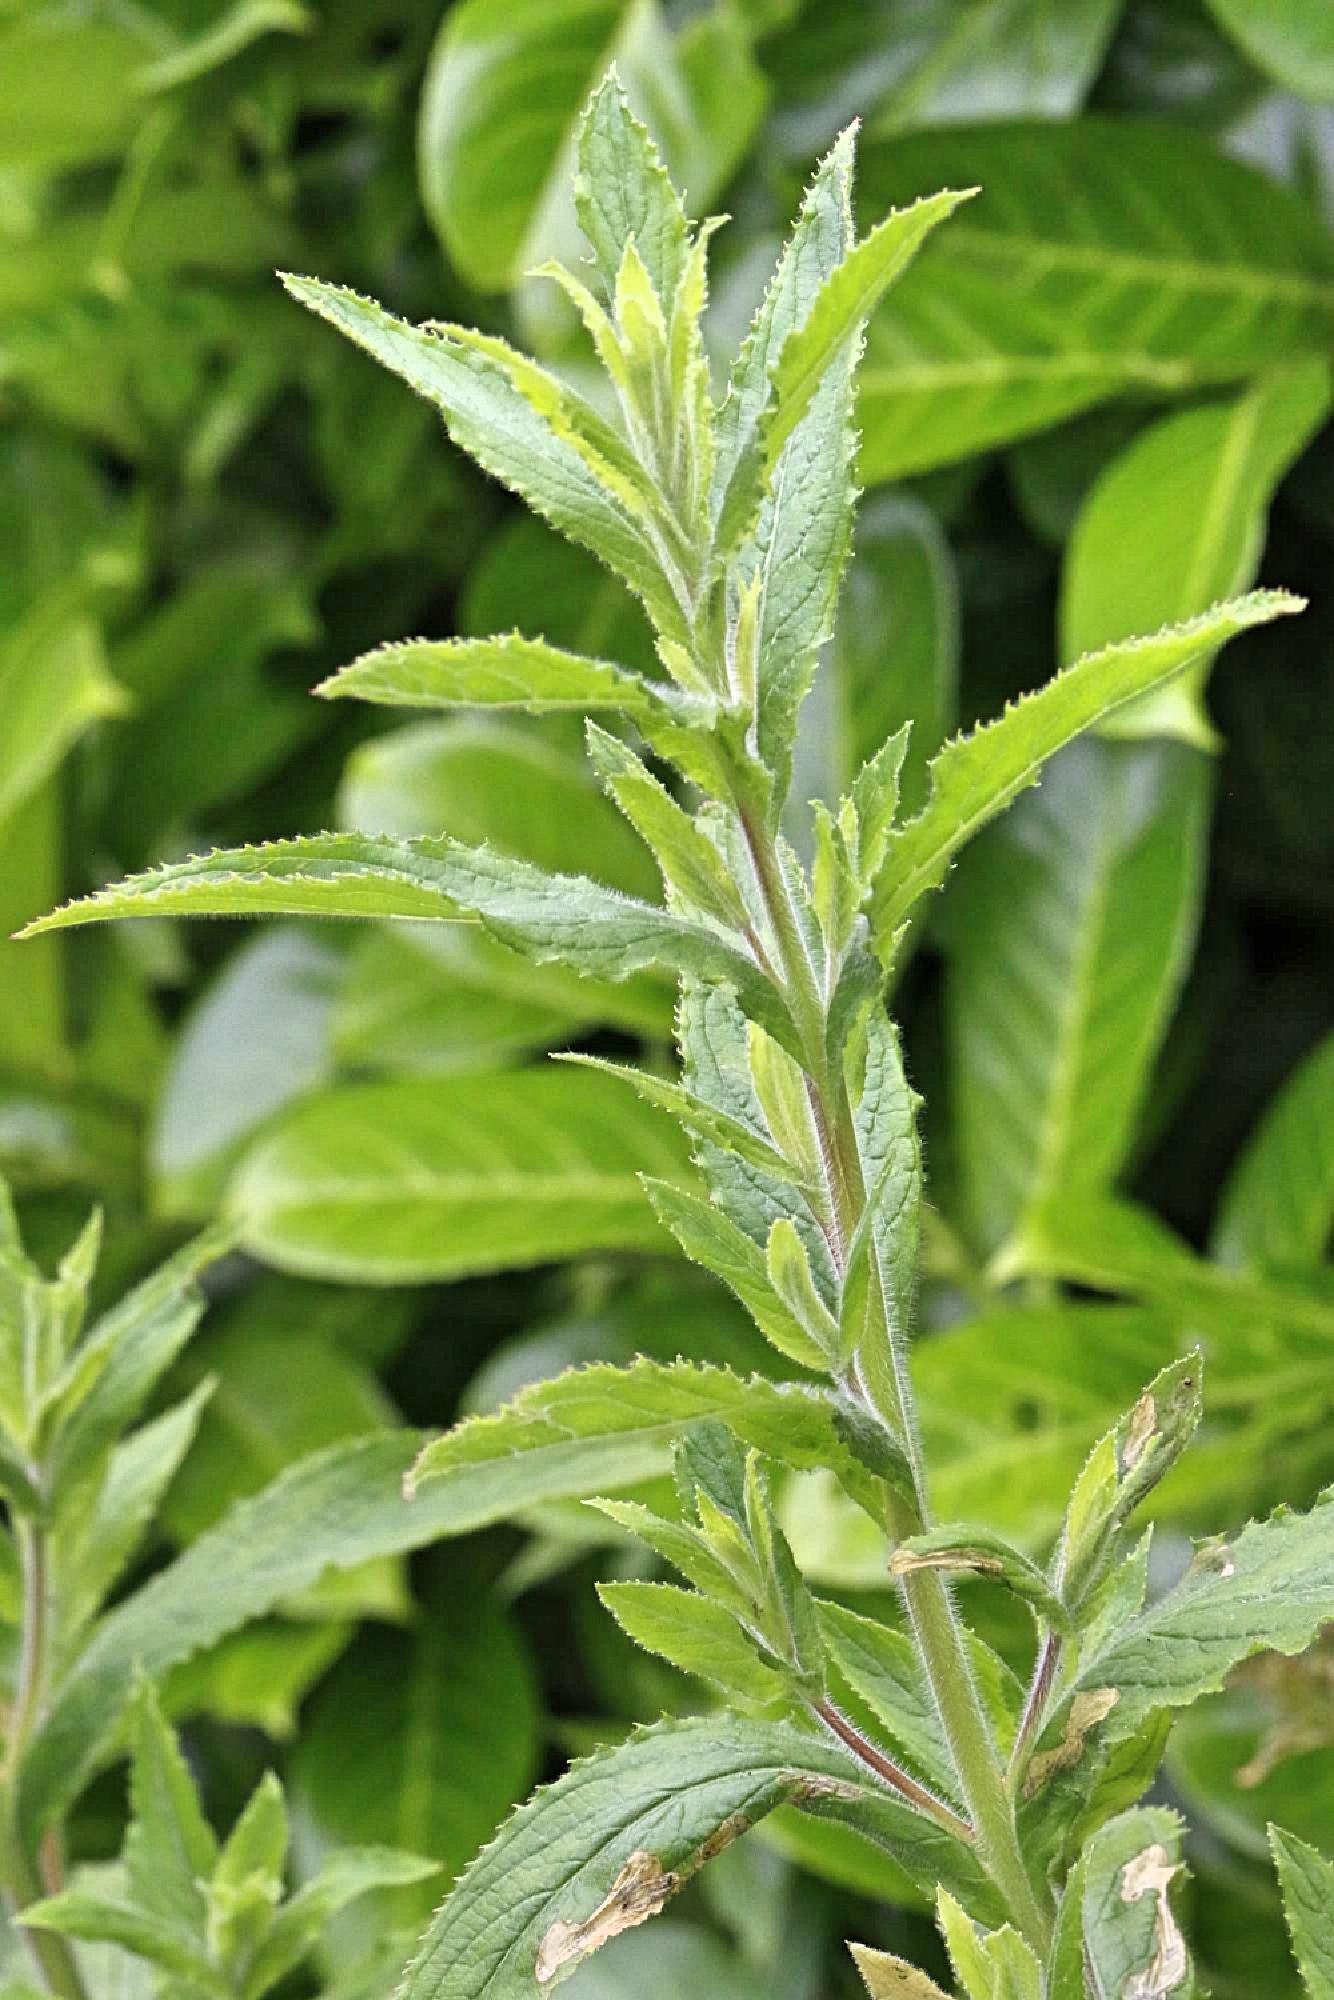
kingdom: Plantae
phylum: Tracheophyta
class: Magnoliopsida
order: Myrtales
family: Onagraceae
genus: Epilobium
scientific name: Epilobium hirsutum
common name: Great willowherb
